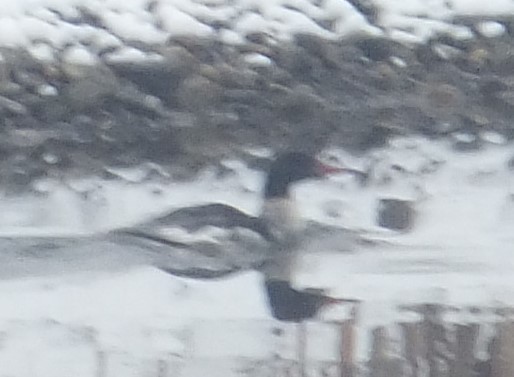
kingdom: Animalia
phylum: Chordata
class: Aves
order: Anseriformes
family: Anatidae
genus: Mergus
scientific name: Mergus serrator
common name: Red-breasted merganser
